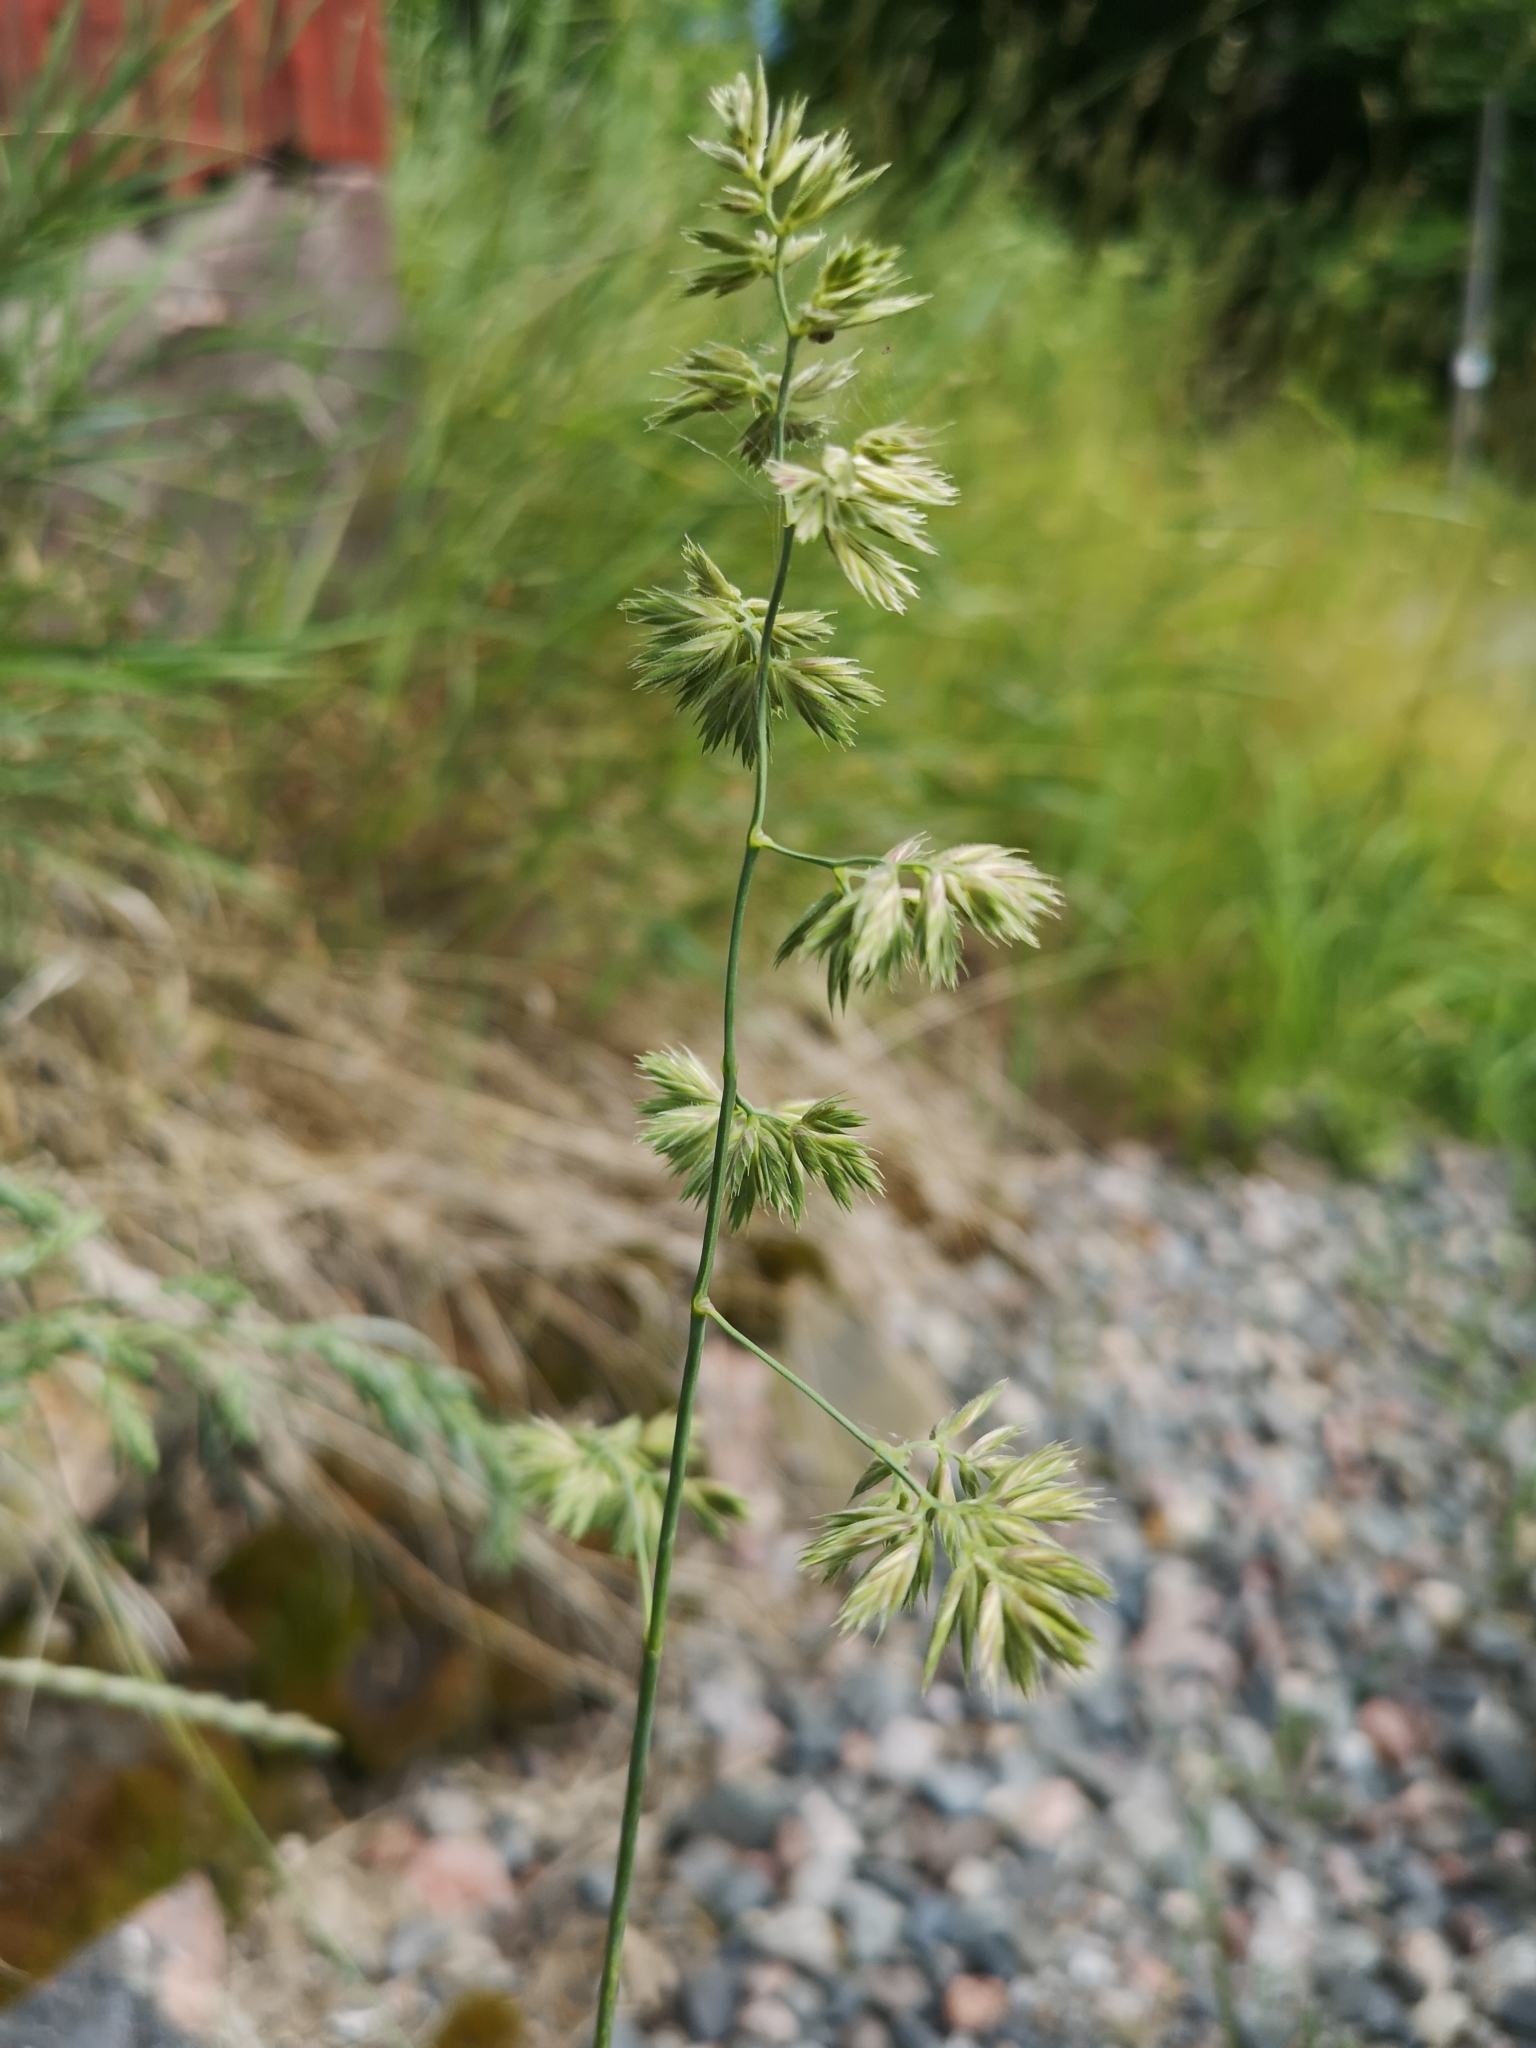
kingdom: Plantae
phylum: Tracheophyta
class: Liliopsida
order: Poales
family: Poaceae
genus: Dactylis
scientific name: Dactylis glomerata
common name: Orchardgrass
